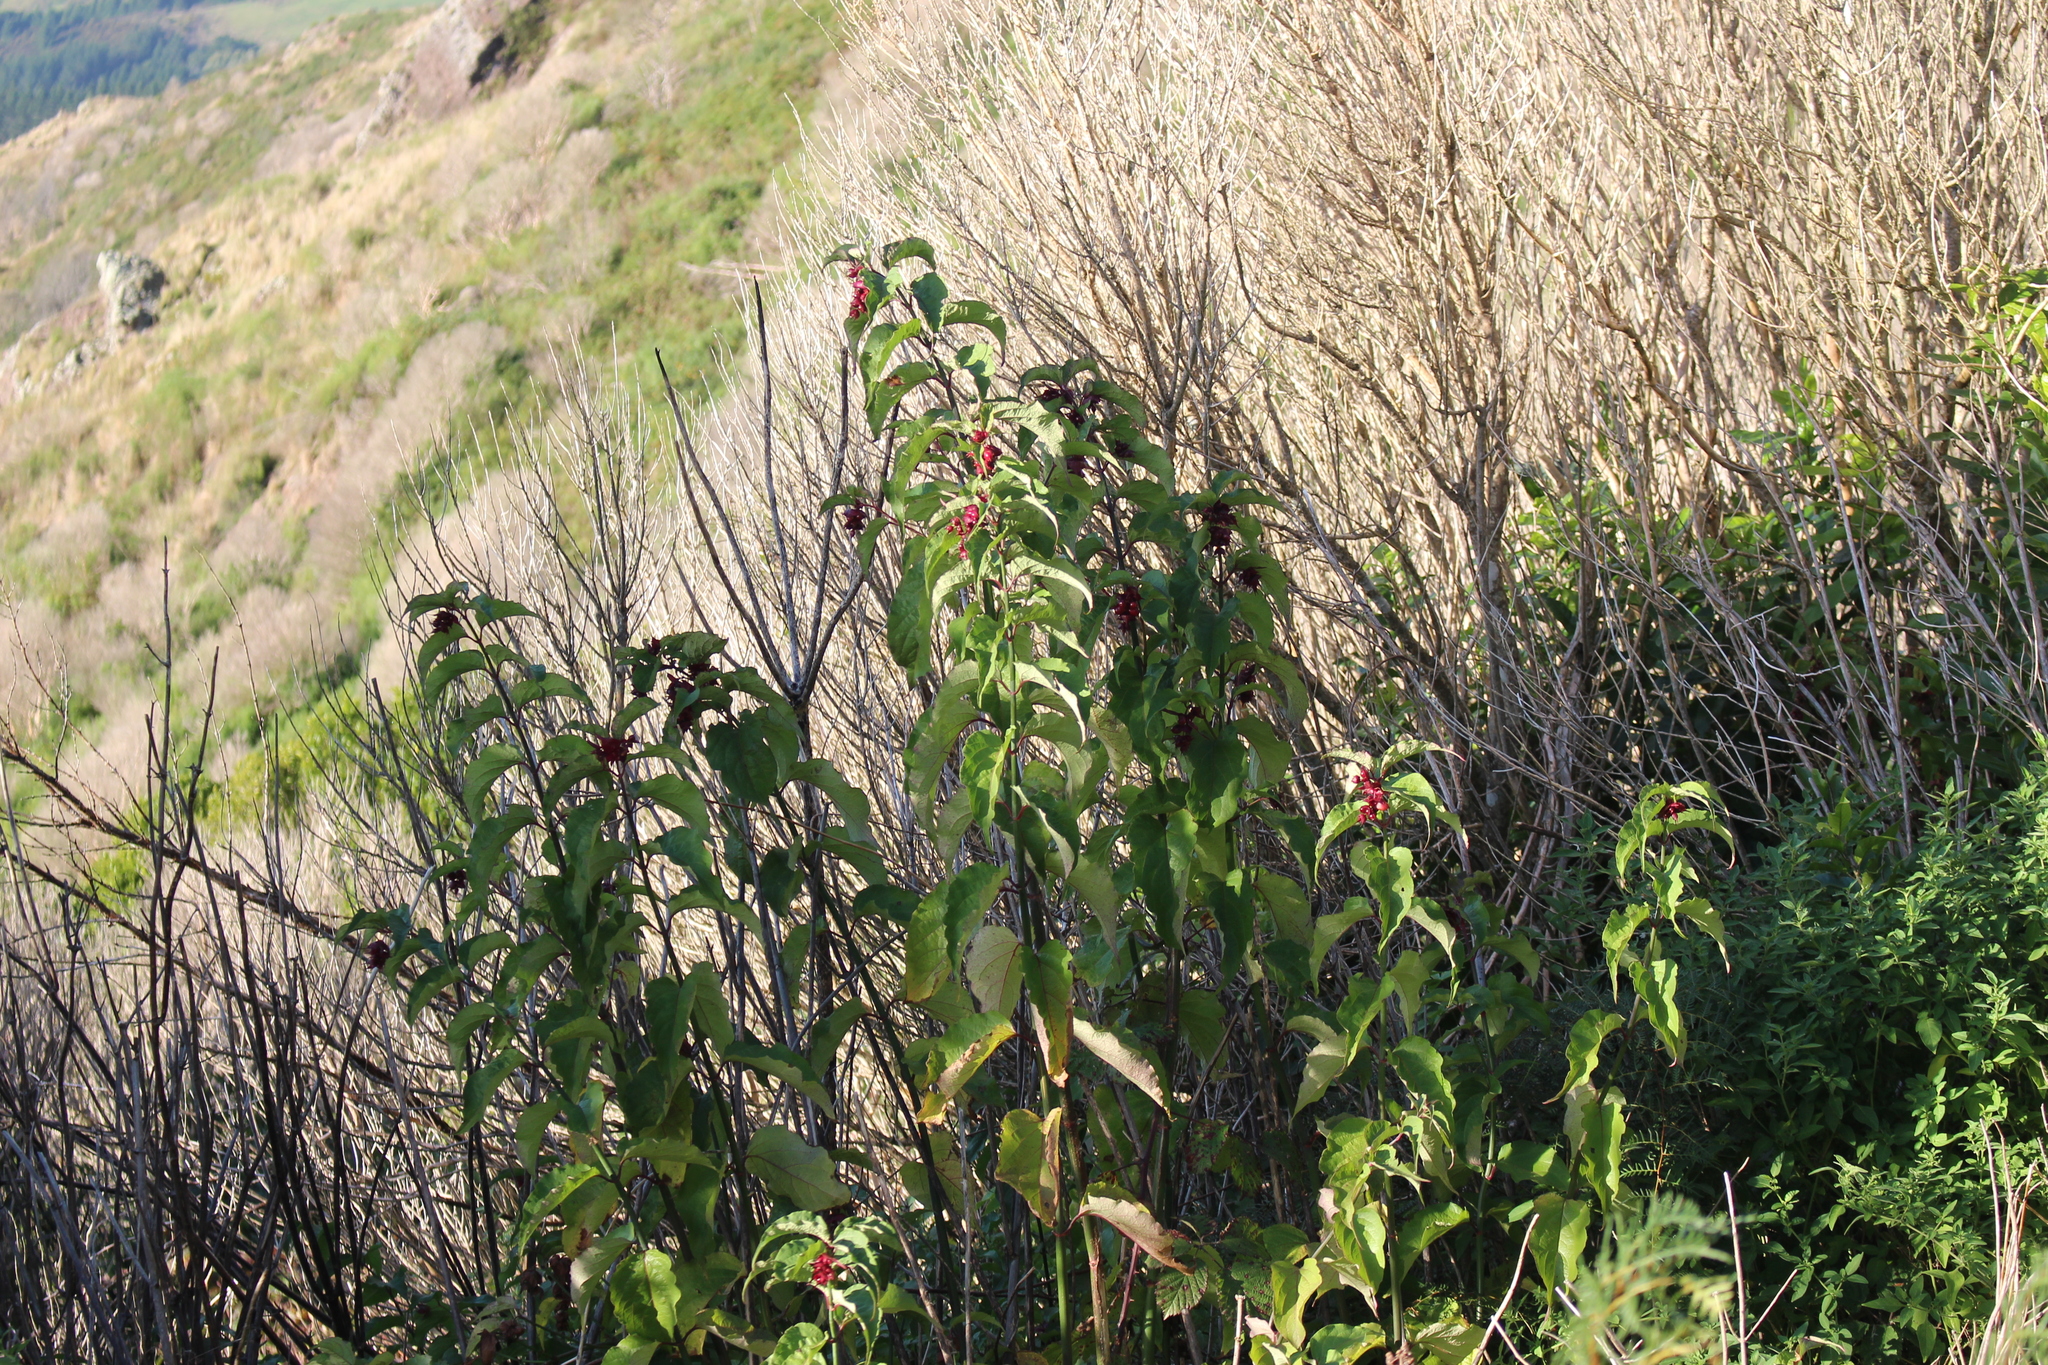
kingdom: Plantae
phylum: Tracheophyta
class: Magnoliopsida
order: Dipsacales
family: Caprifoliaceae
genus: Leycesteria
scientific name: Leycesteria formosa
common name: Himalayan honeysuckle
